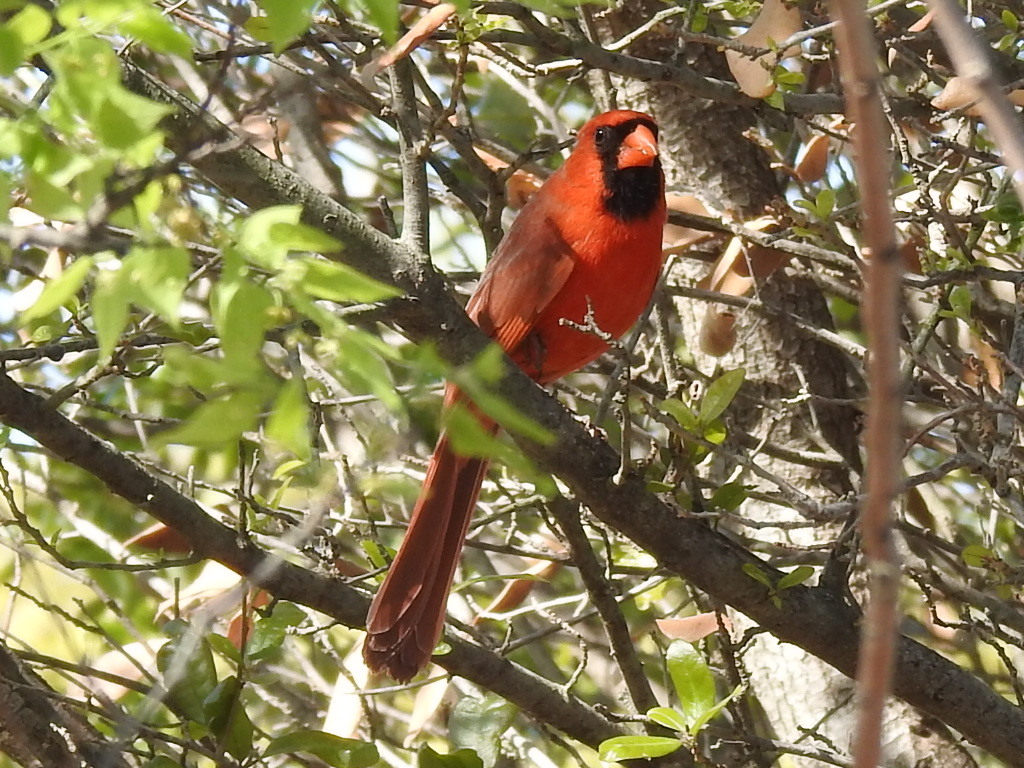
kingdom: Animalia
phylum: Chordata
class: Aves
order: Passeriformes
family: Cardinalidae
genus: Cardinalis
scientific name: Cardinalis cardinalis
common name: Northern cardinal
